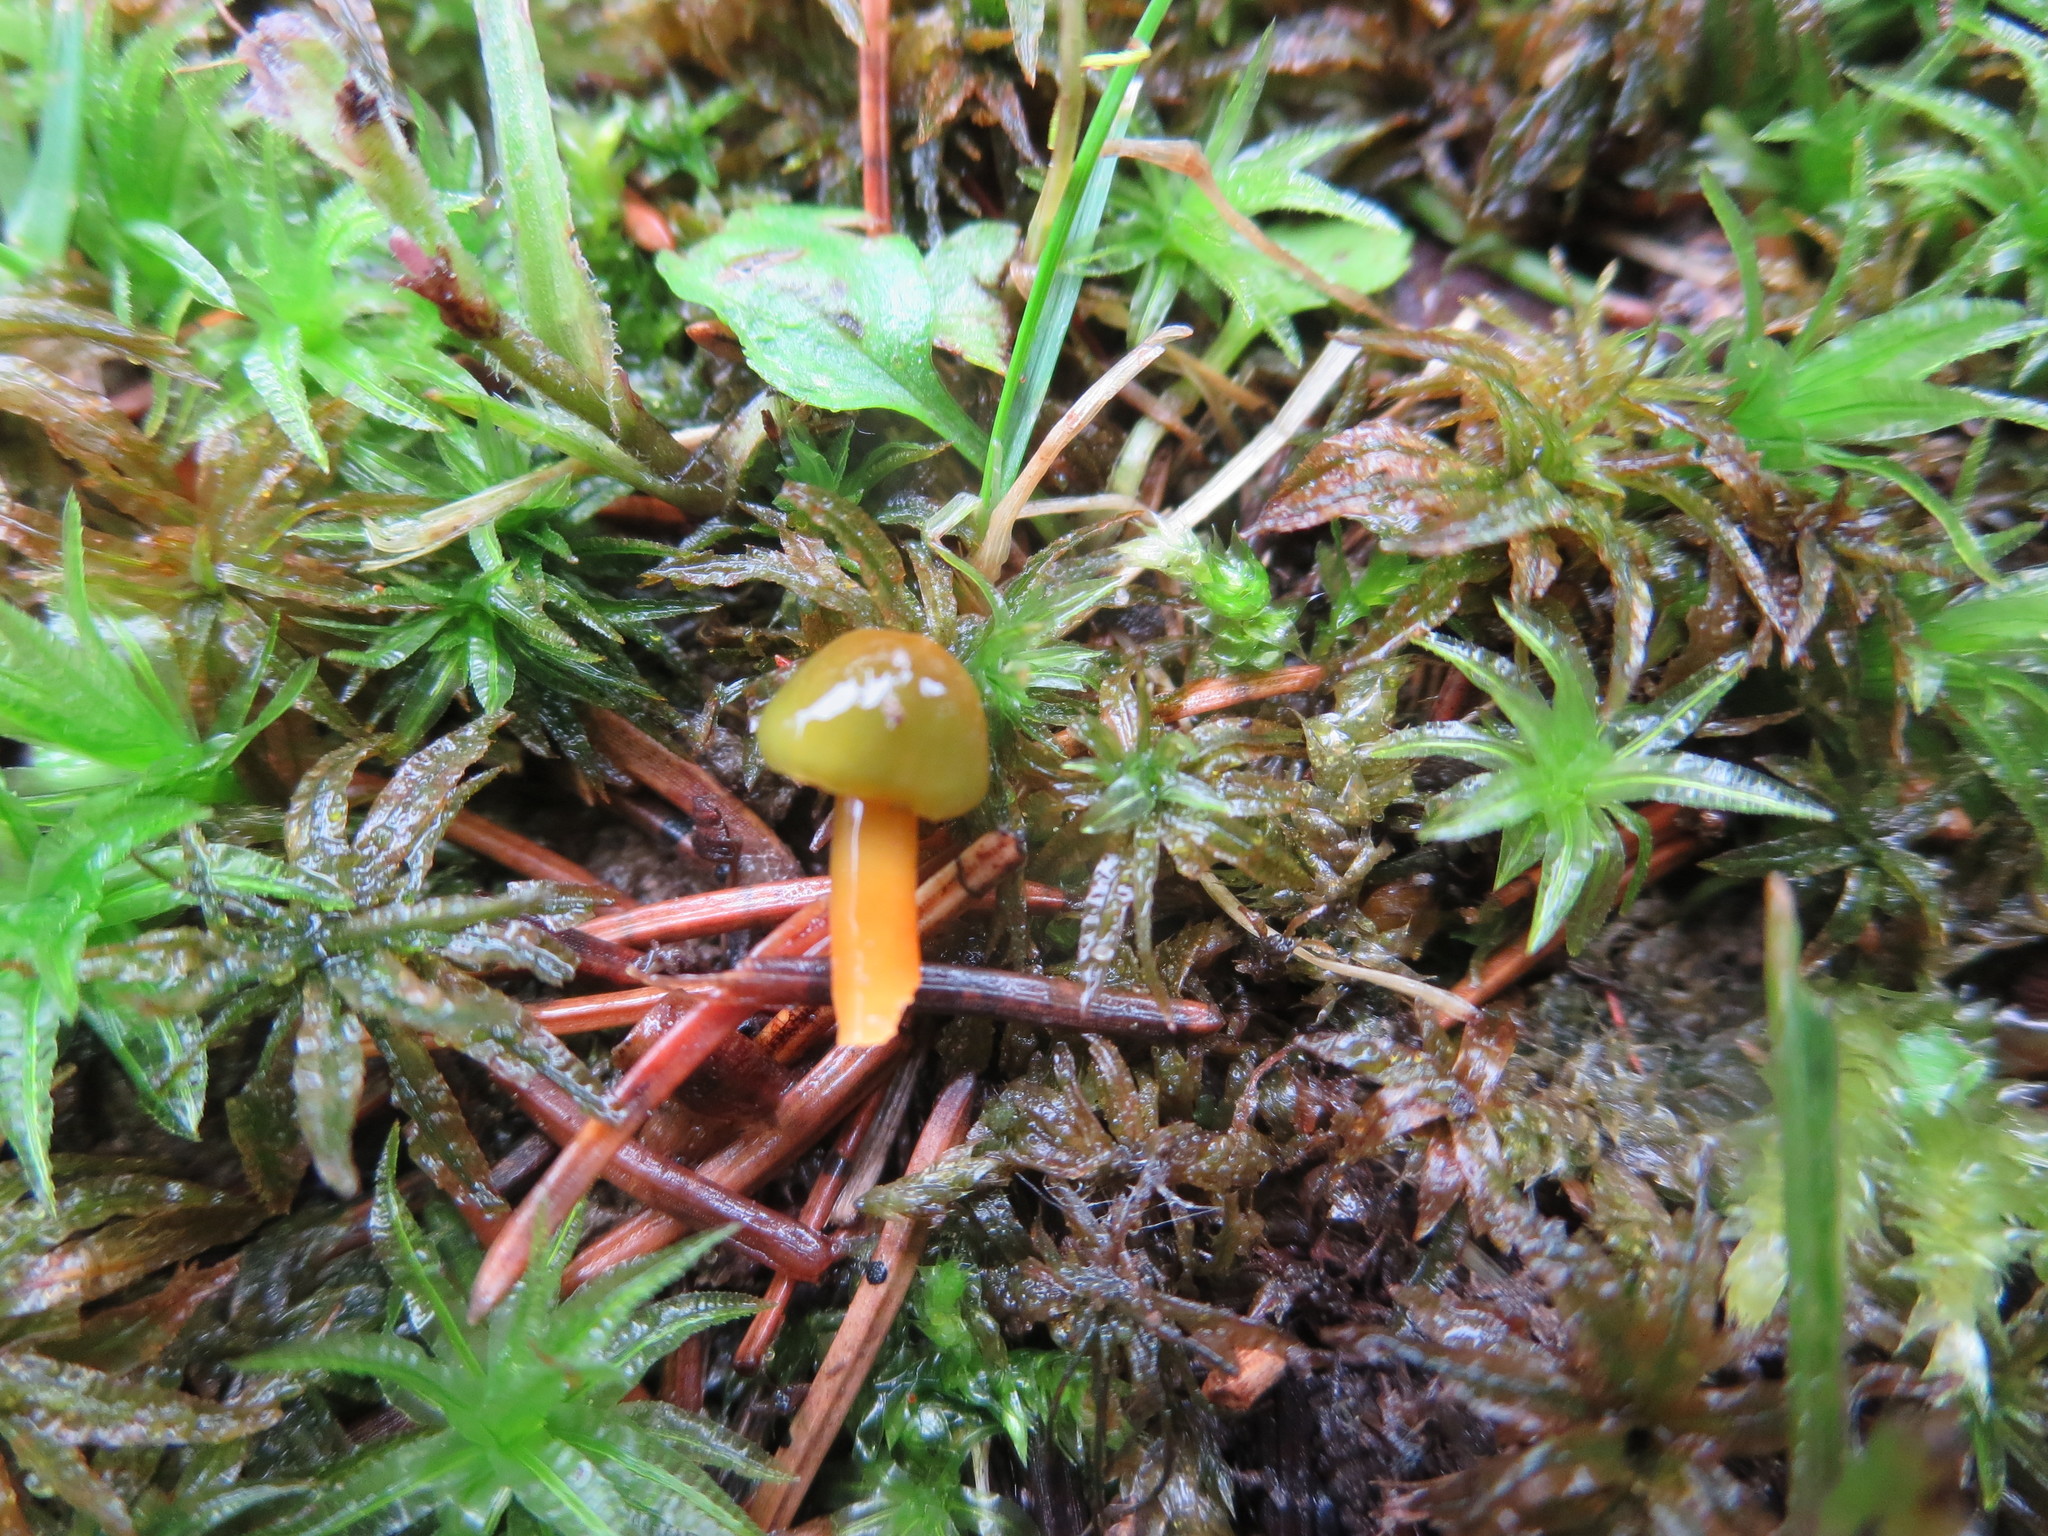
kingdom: Fungi
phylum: Basidiomycota
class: Agaricomycetes
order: Agaricales
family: Hygrophoraceae
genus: Gliophorus
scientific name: Gliophorus psittacinus
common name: Parrot wax-cap
